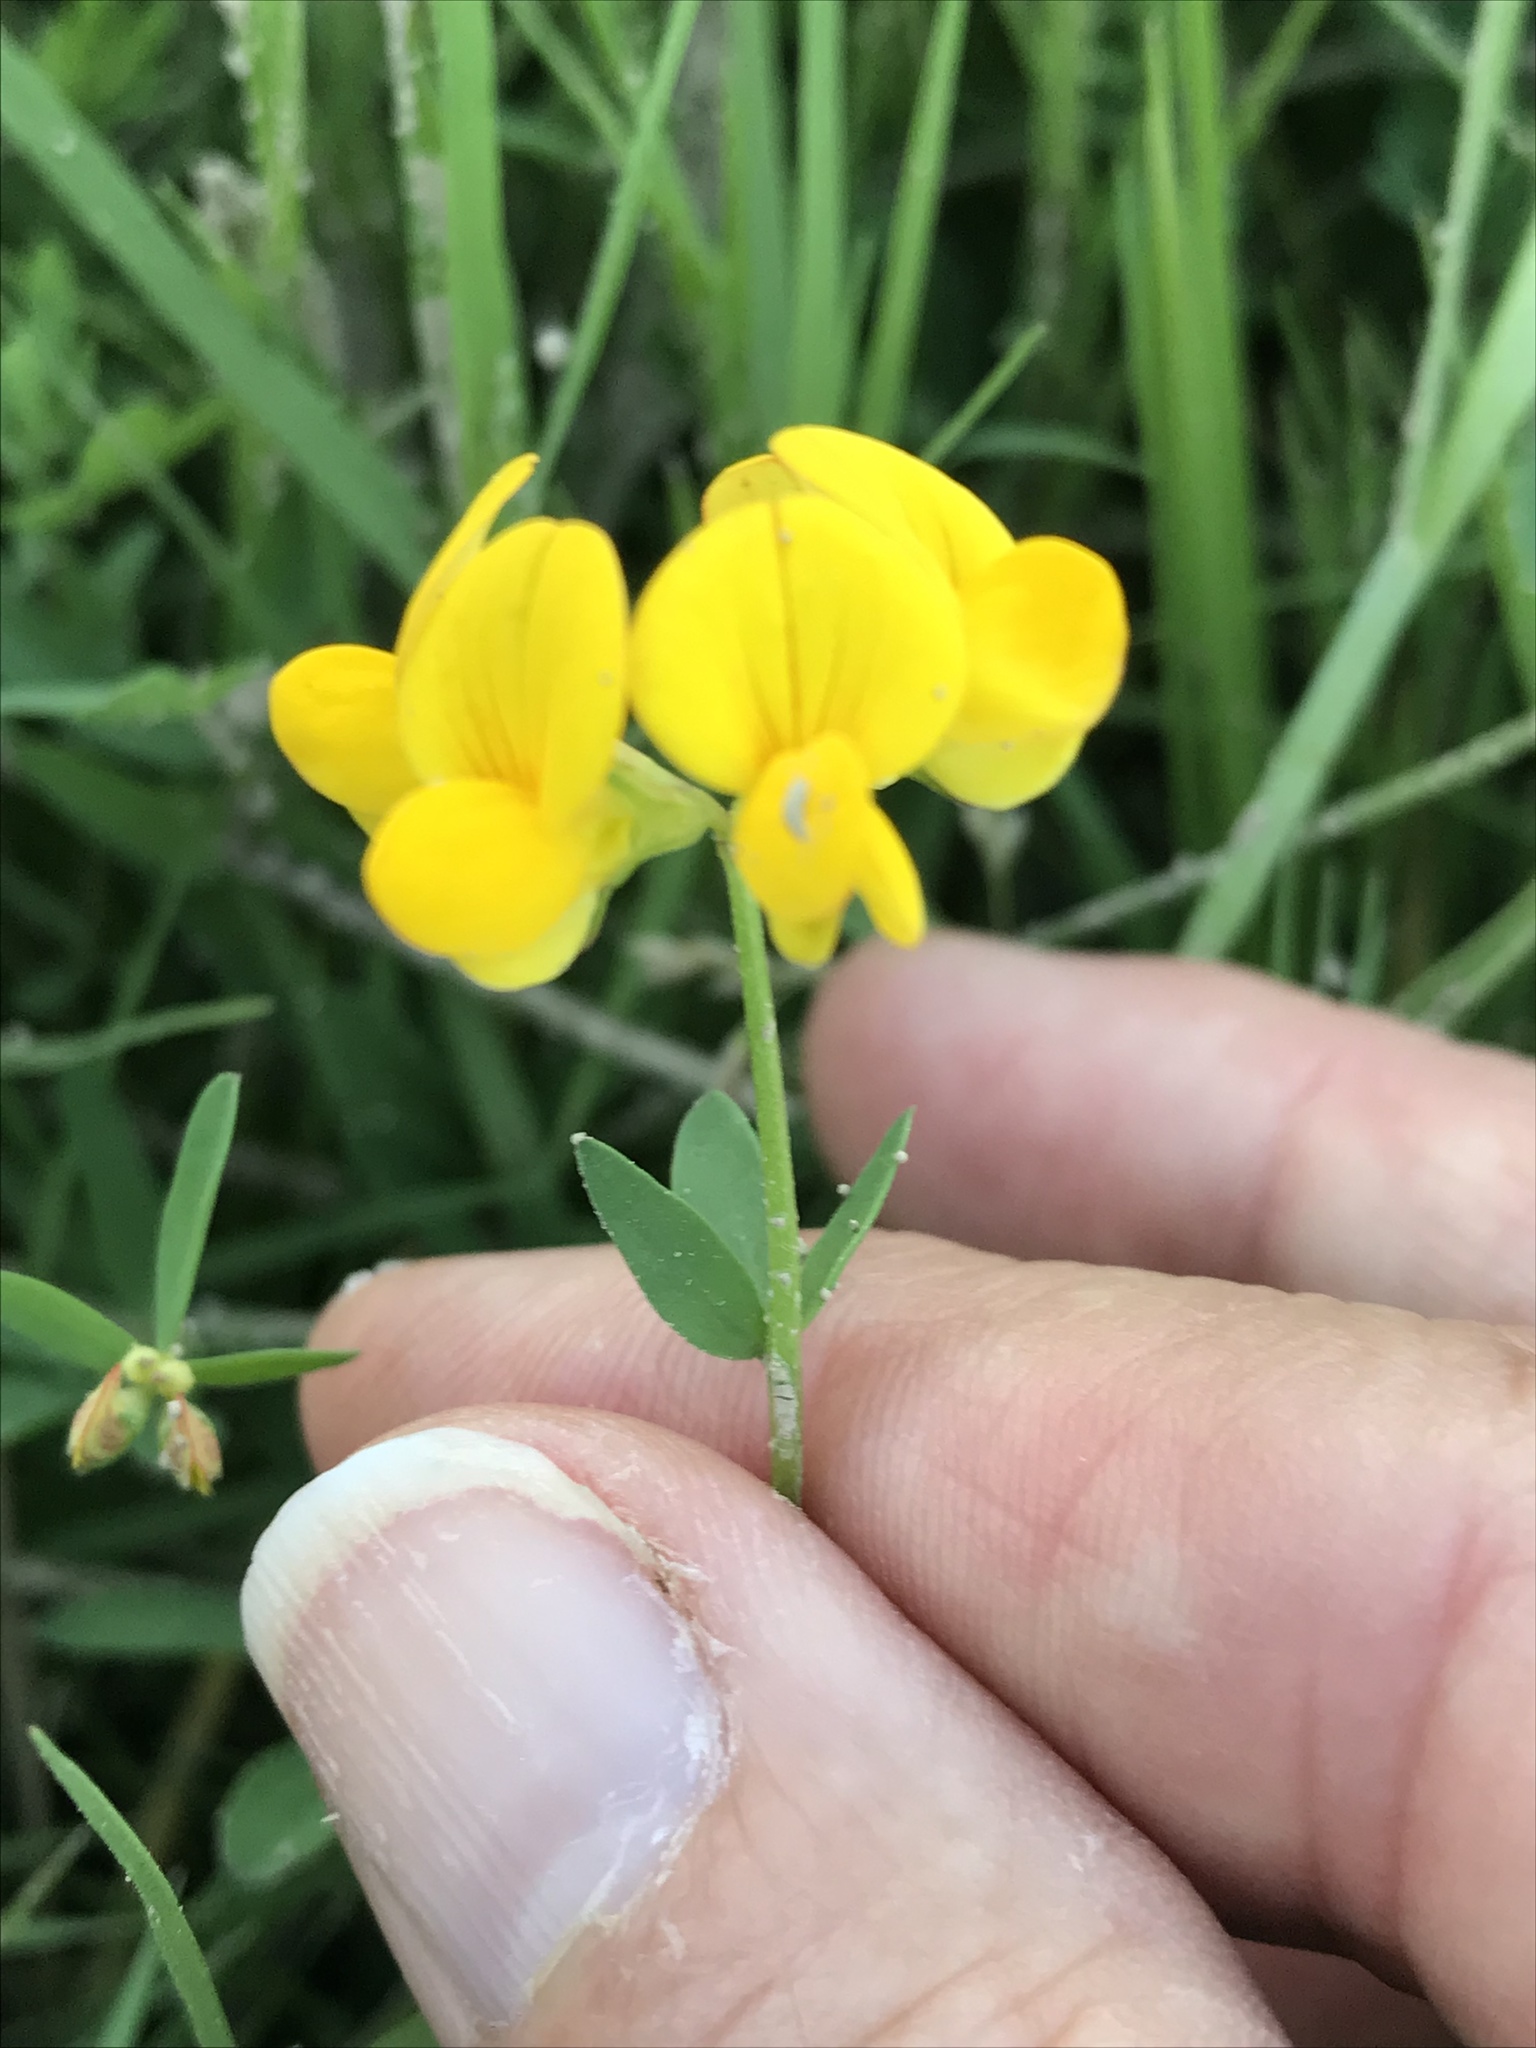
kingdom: Plantae
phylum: Tracheophyta
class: Magnoliopsida
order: Fabales
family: Fabaceae
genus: Lotus
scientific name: Lotus corniculatus
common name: Common bird's-foot-trefoil
